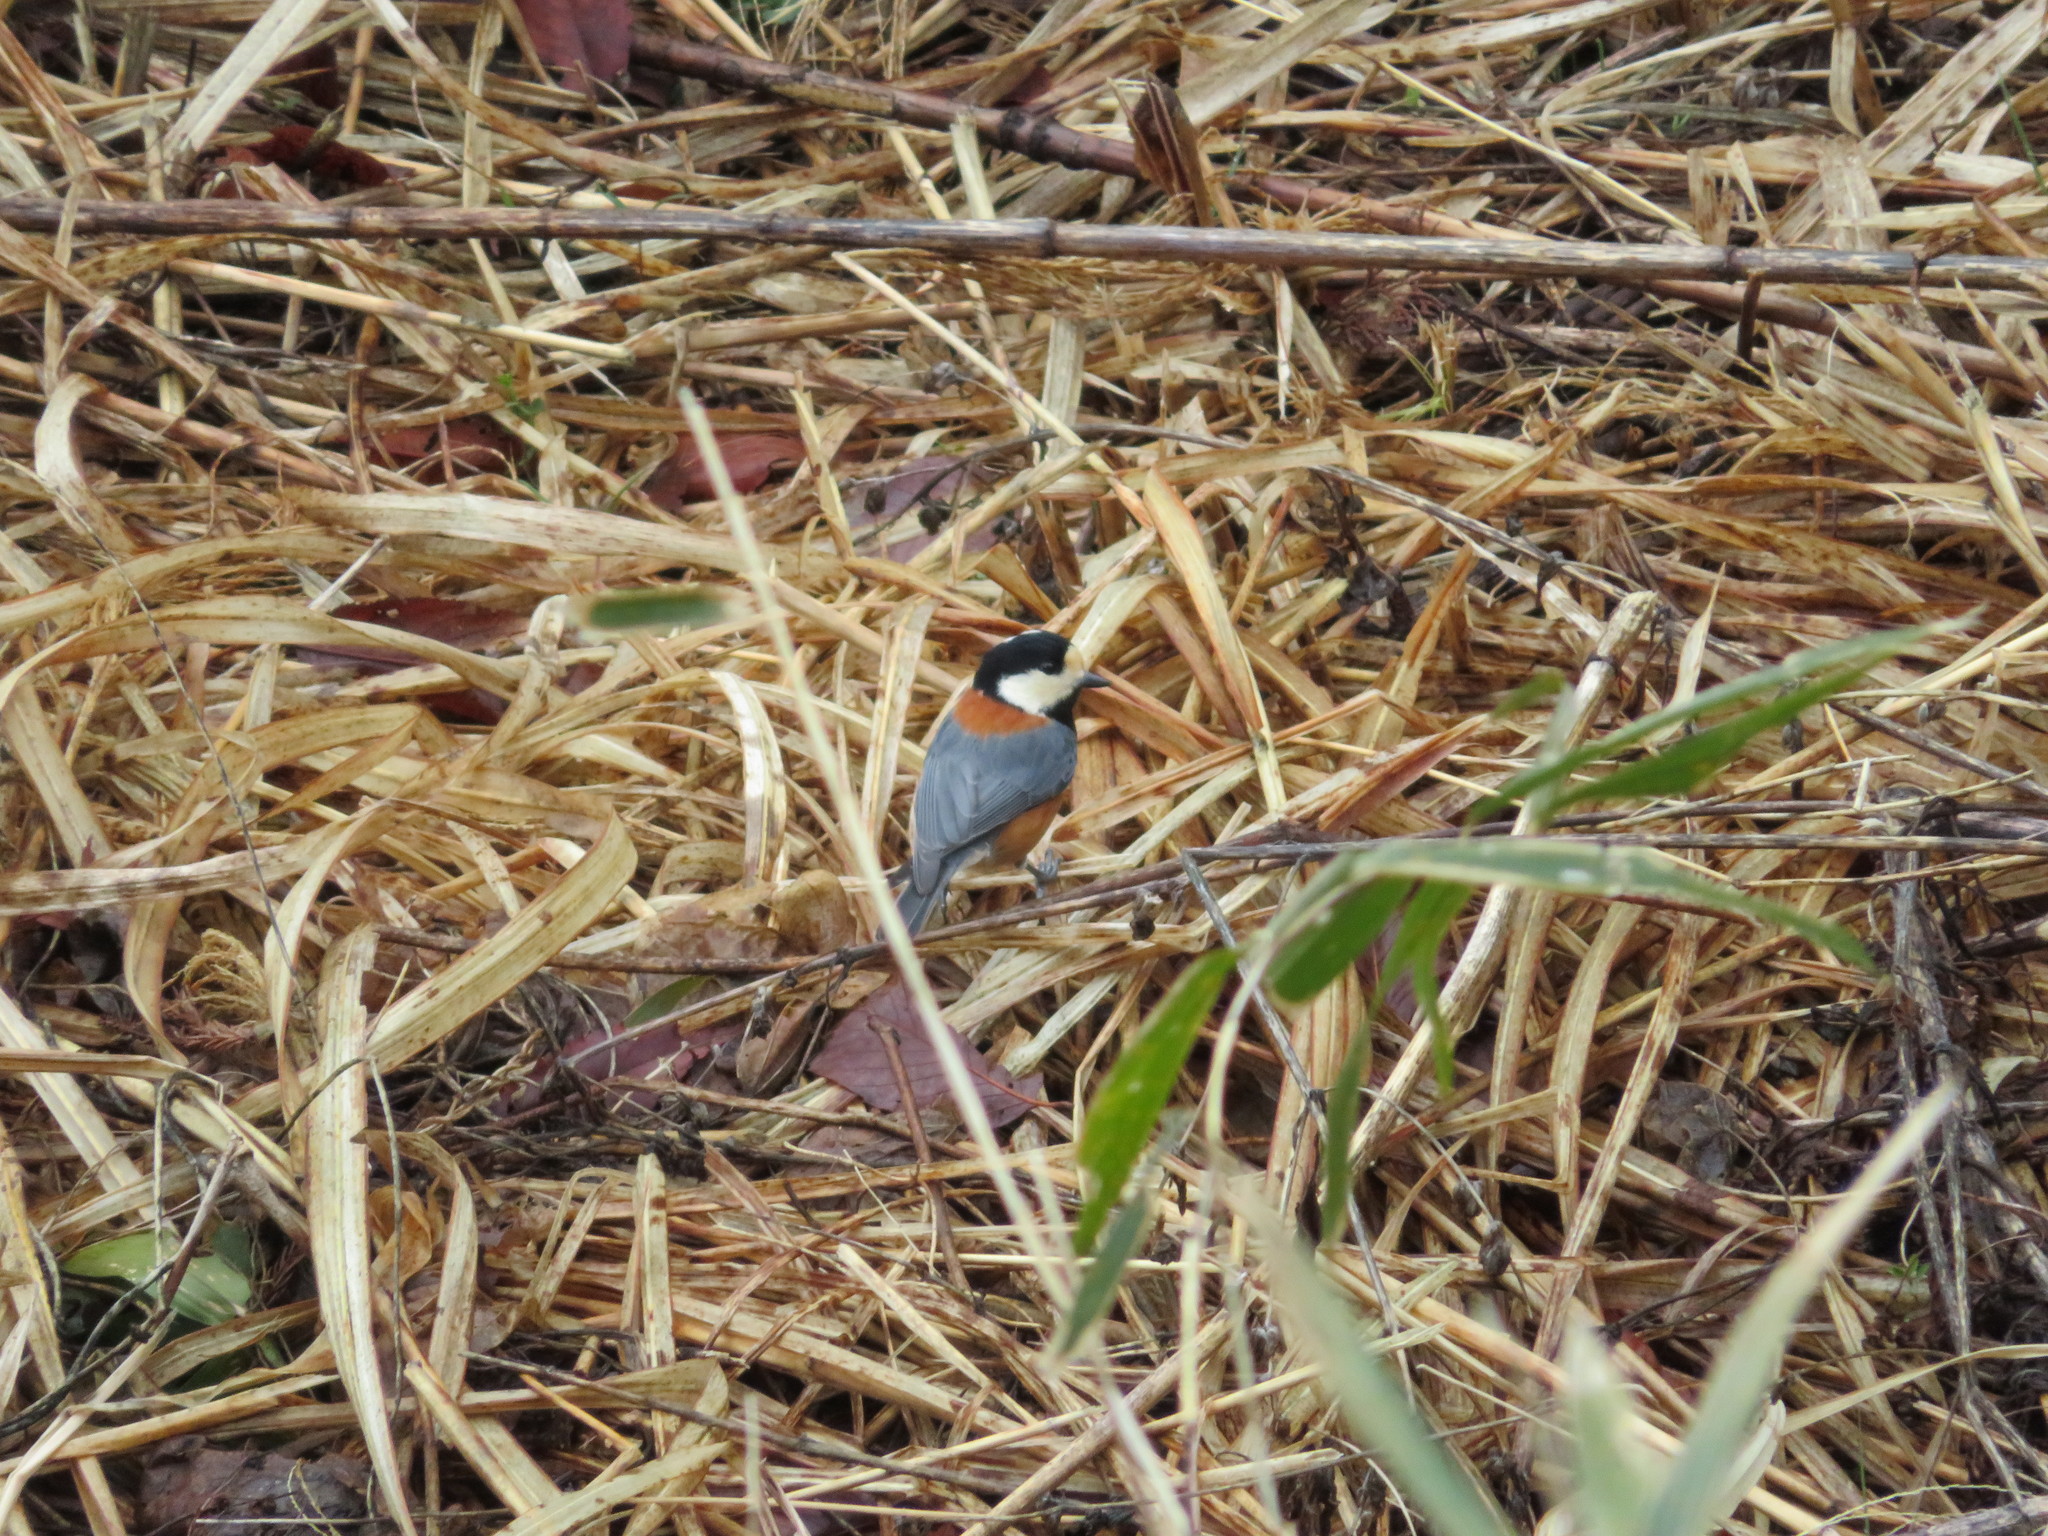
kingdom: Animalia
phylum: Chordata
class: Aves
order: Passeriformes
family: Paridae
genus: Poecile
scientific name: Poecile varius
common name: Varied tit
